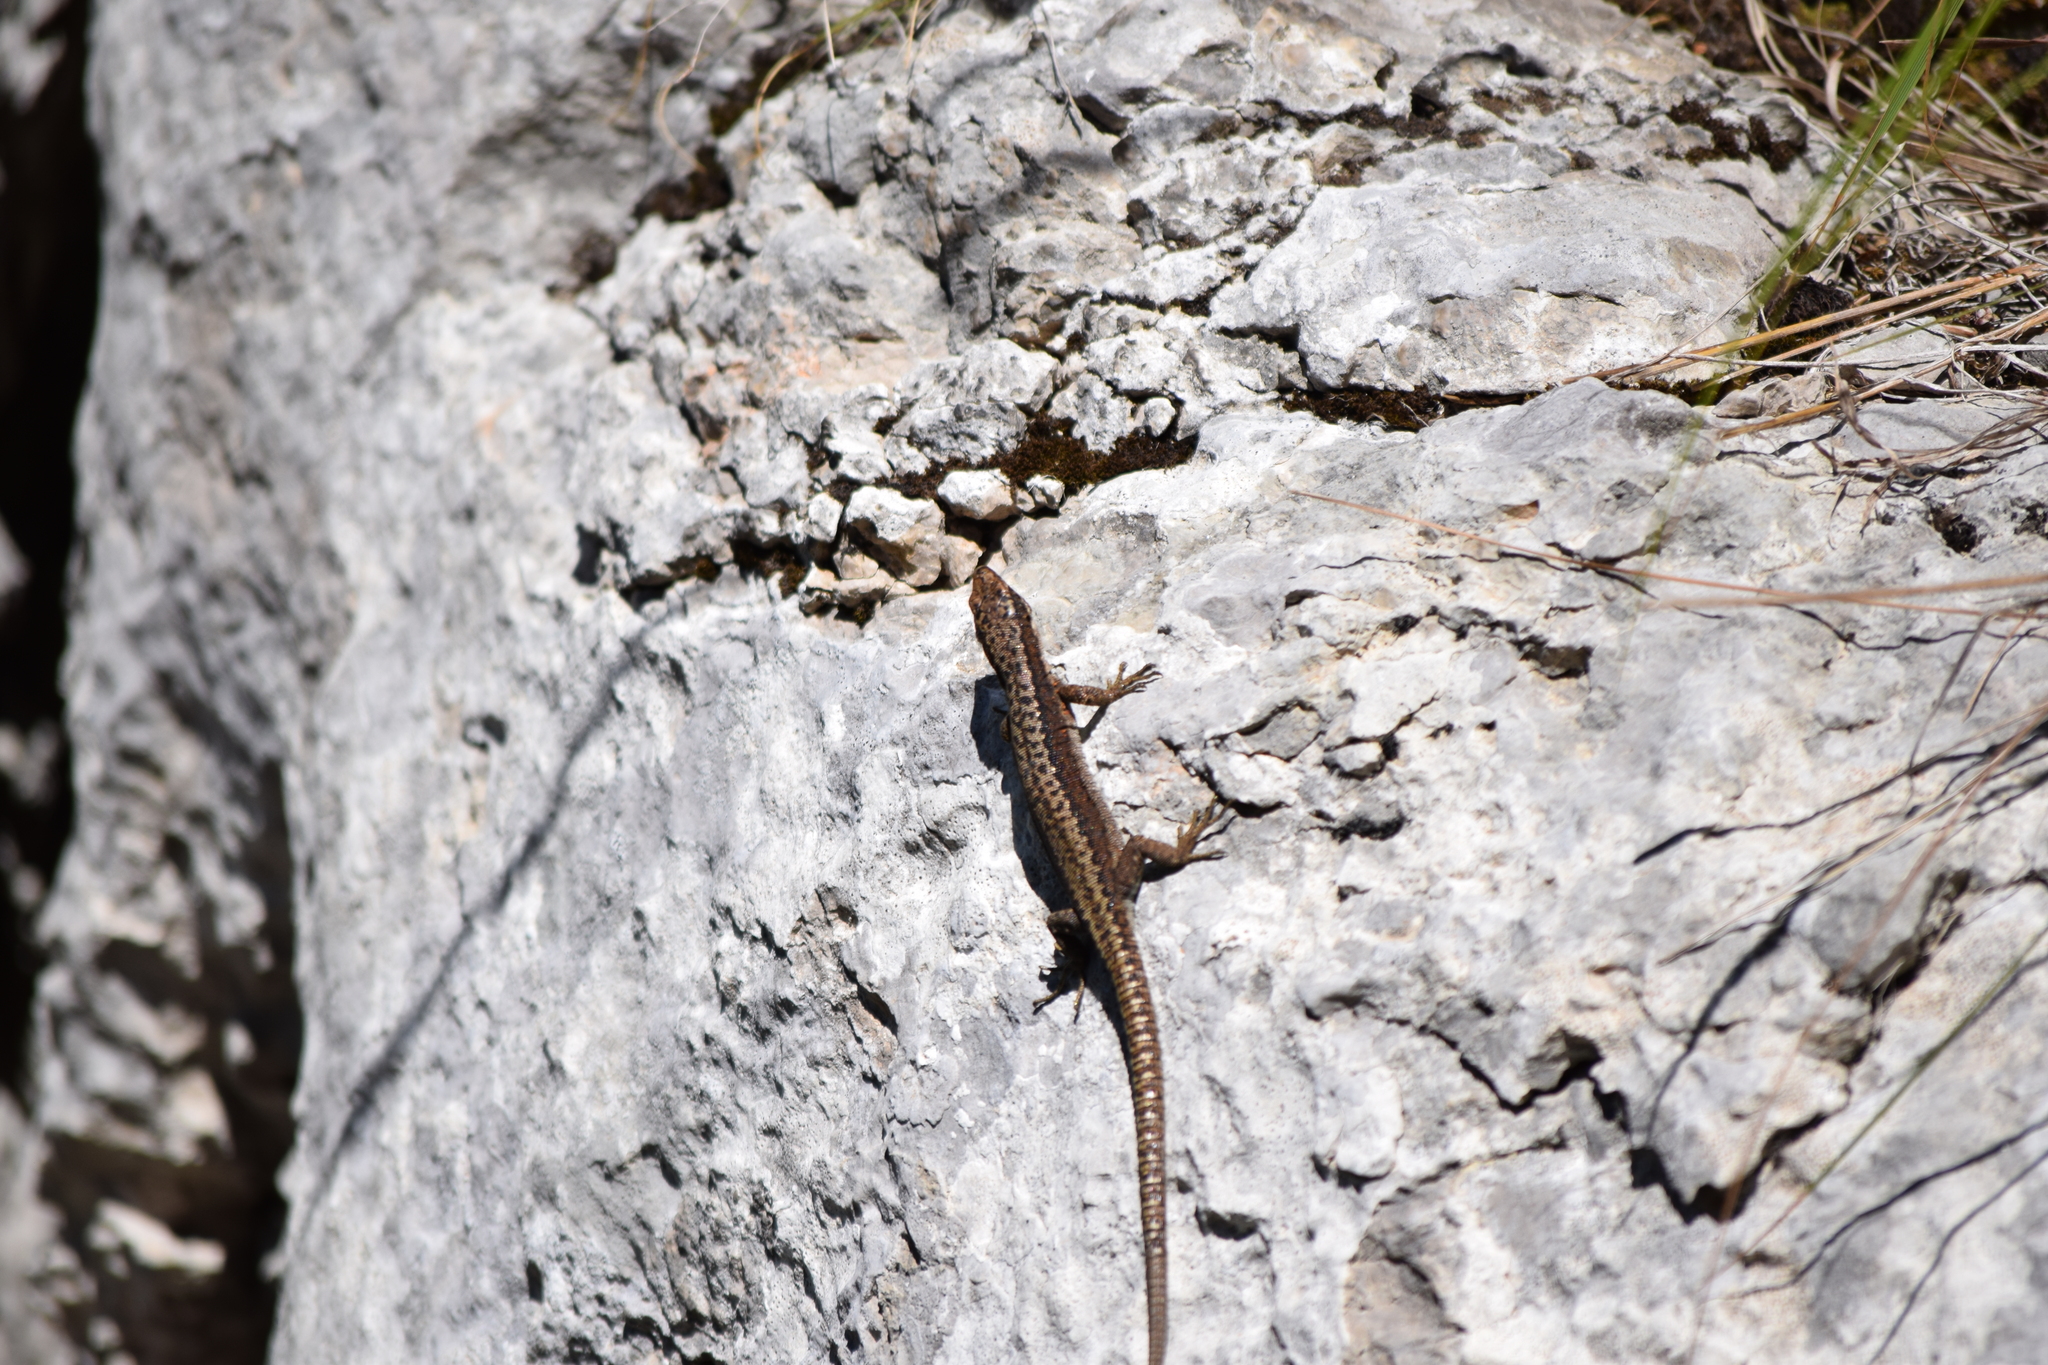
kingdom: Animalia
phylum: Chordata
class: Squamata
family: Lacertidae
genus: Iberolacerta
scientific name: Iberolacerta horvathi
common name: Horvath's rock lizard
